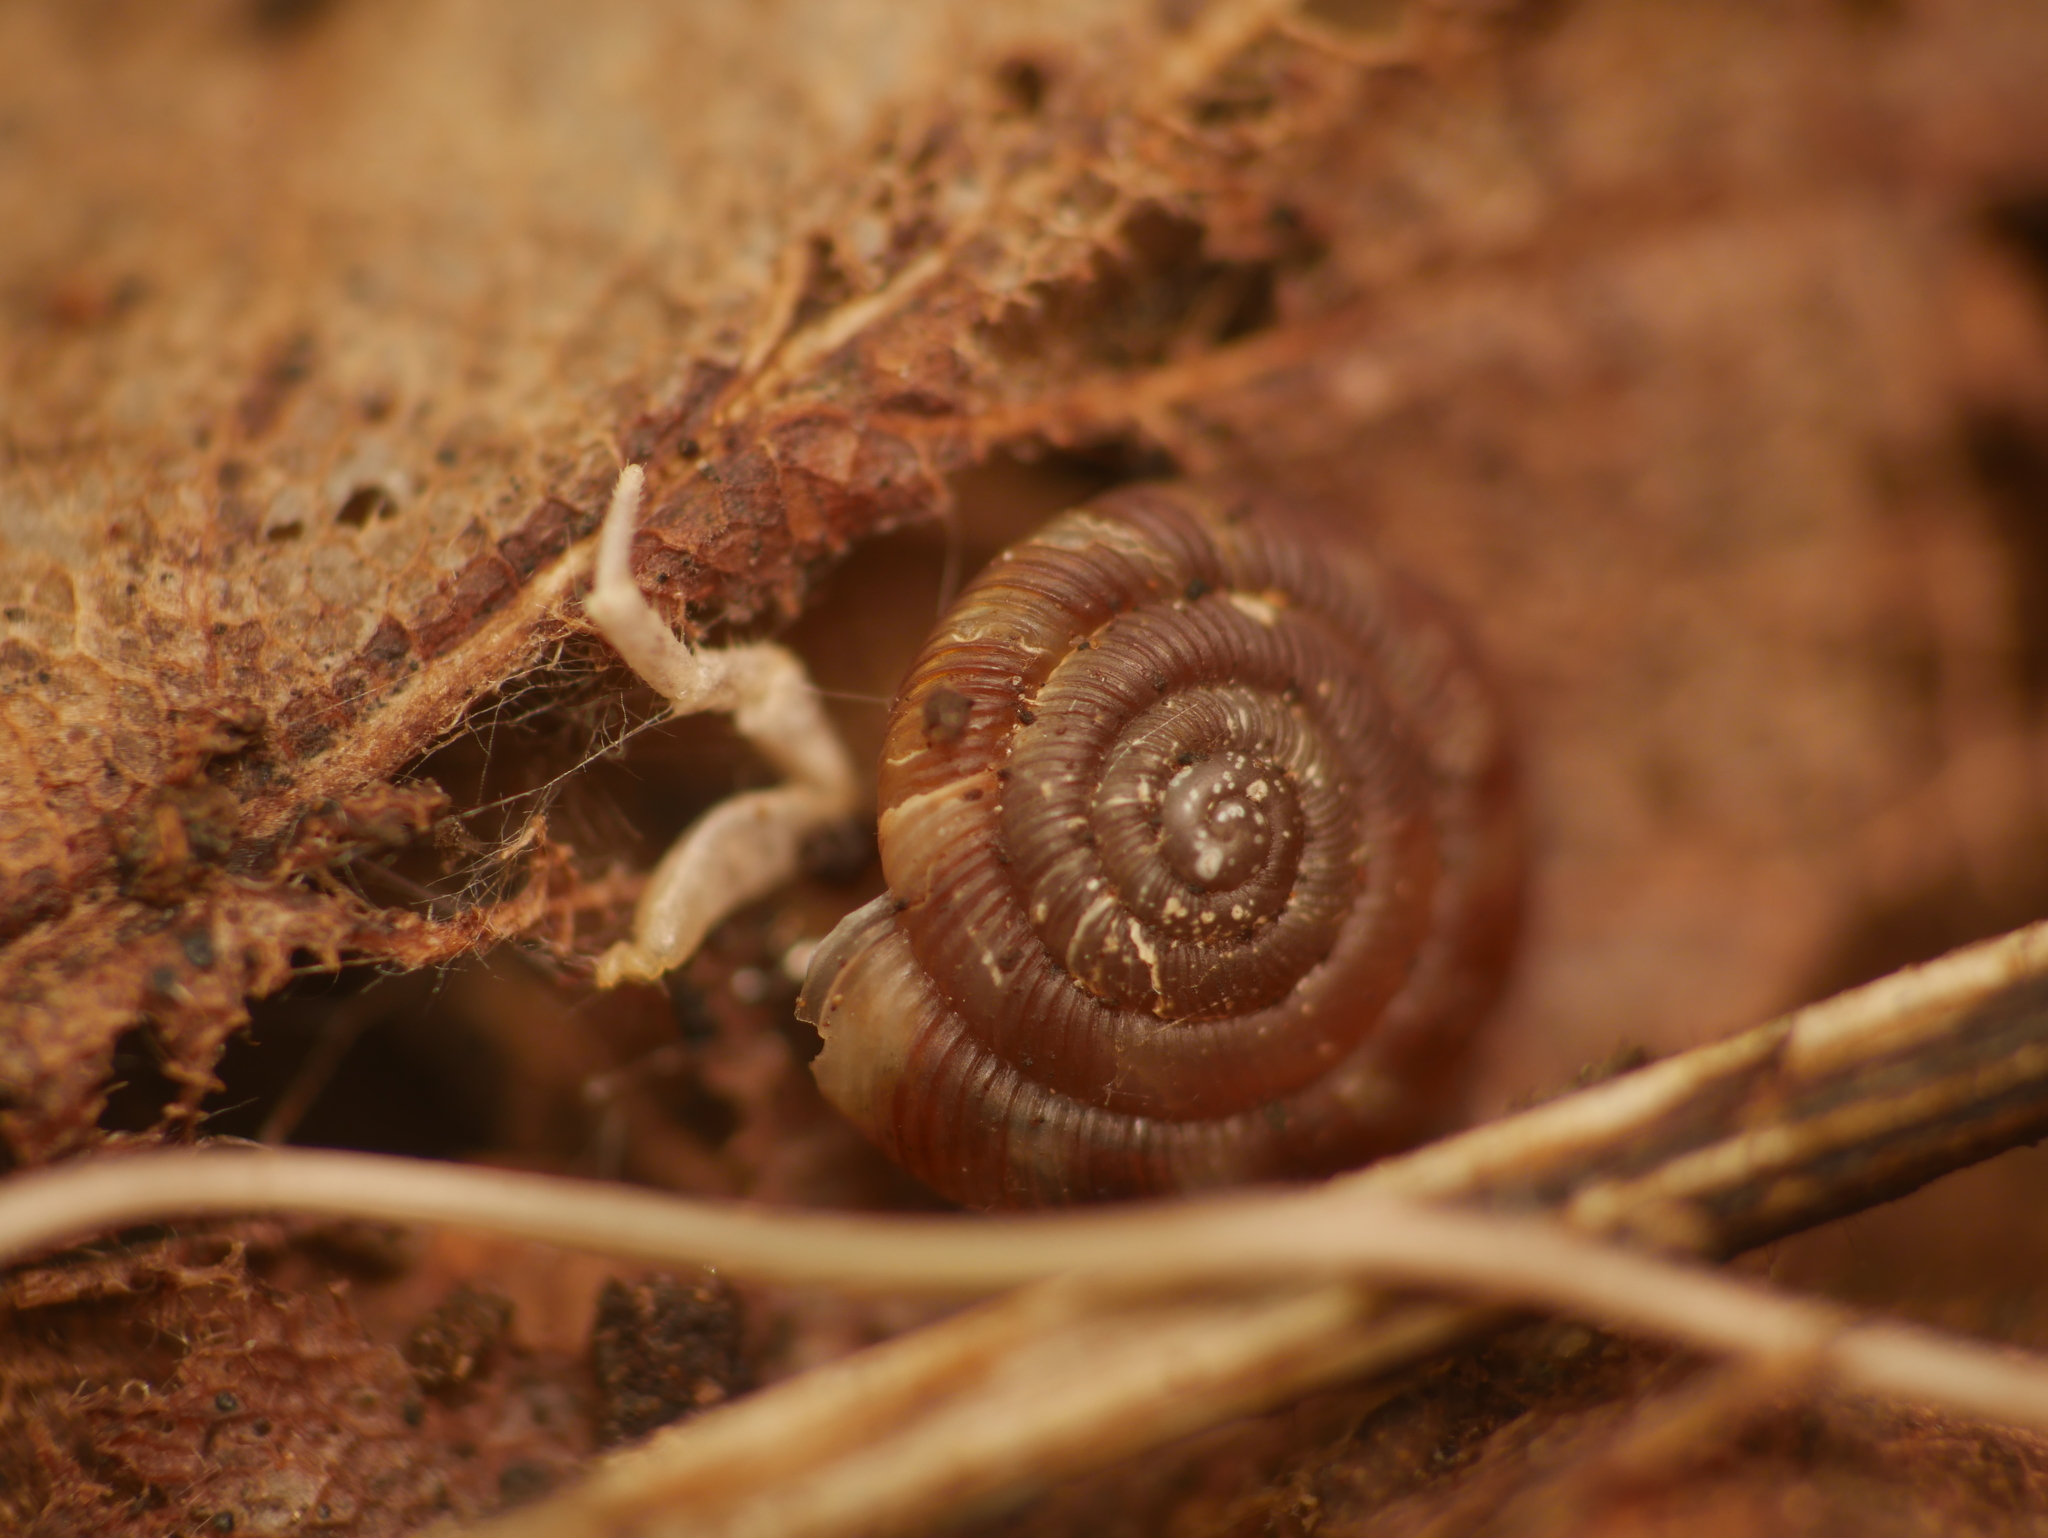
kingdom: Animalia
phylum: Mollusca
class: Gastropoda
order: Stylommatophora
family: Discidae
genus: Discus
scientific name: Discus rotundatus
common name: Rounded snail
